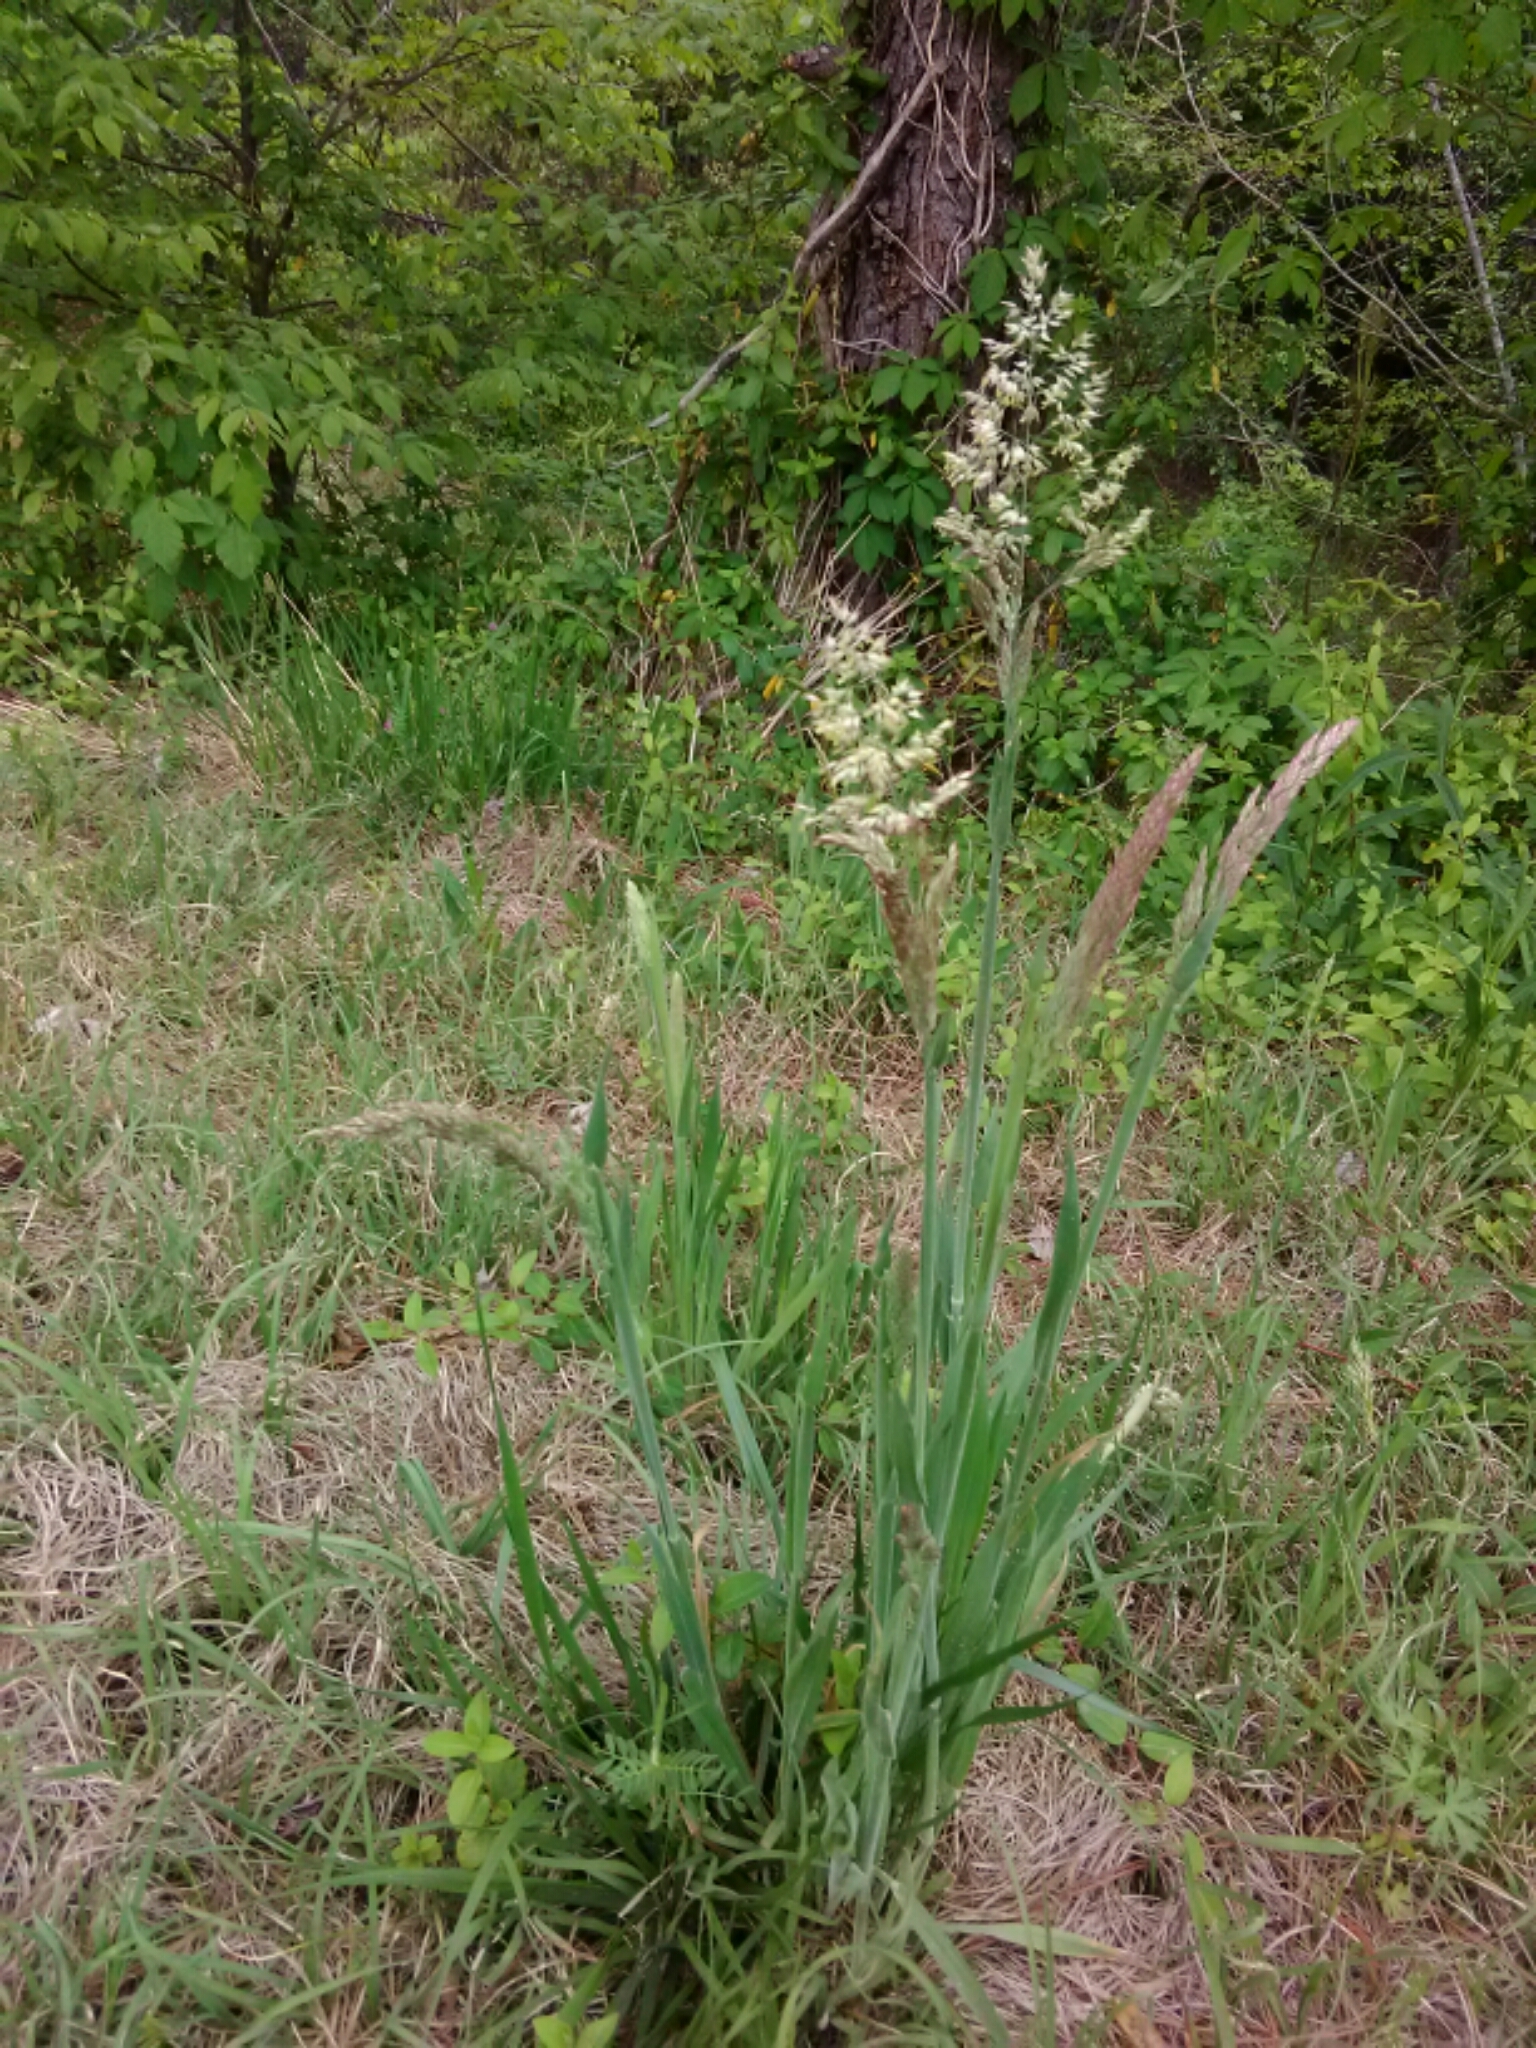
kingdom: Plantae
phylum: Tracheophyta
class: Liliopsida
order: Poales
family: Poaceae
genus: Holcus
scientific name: Holcus lanatus
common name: Yorkshire-fog
